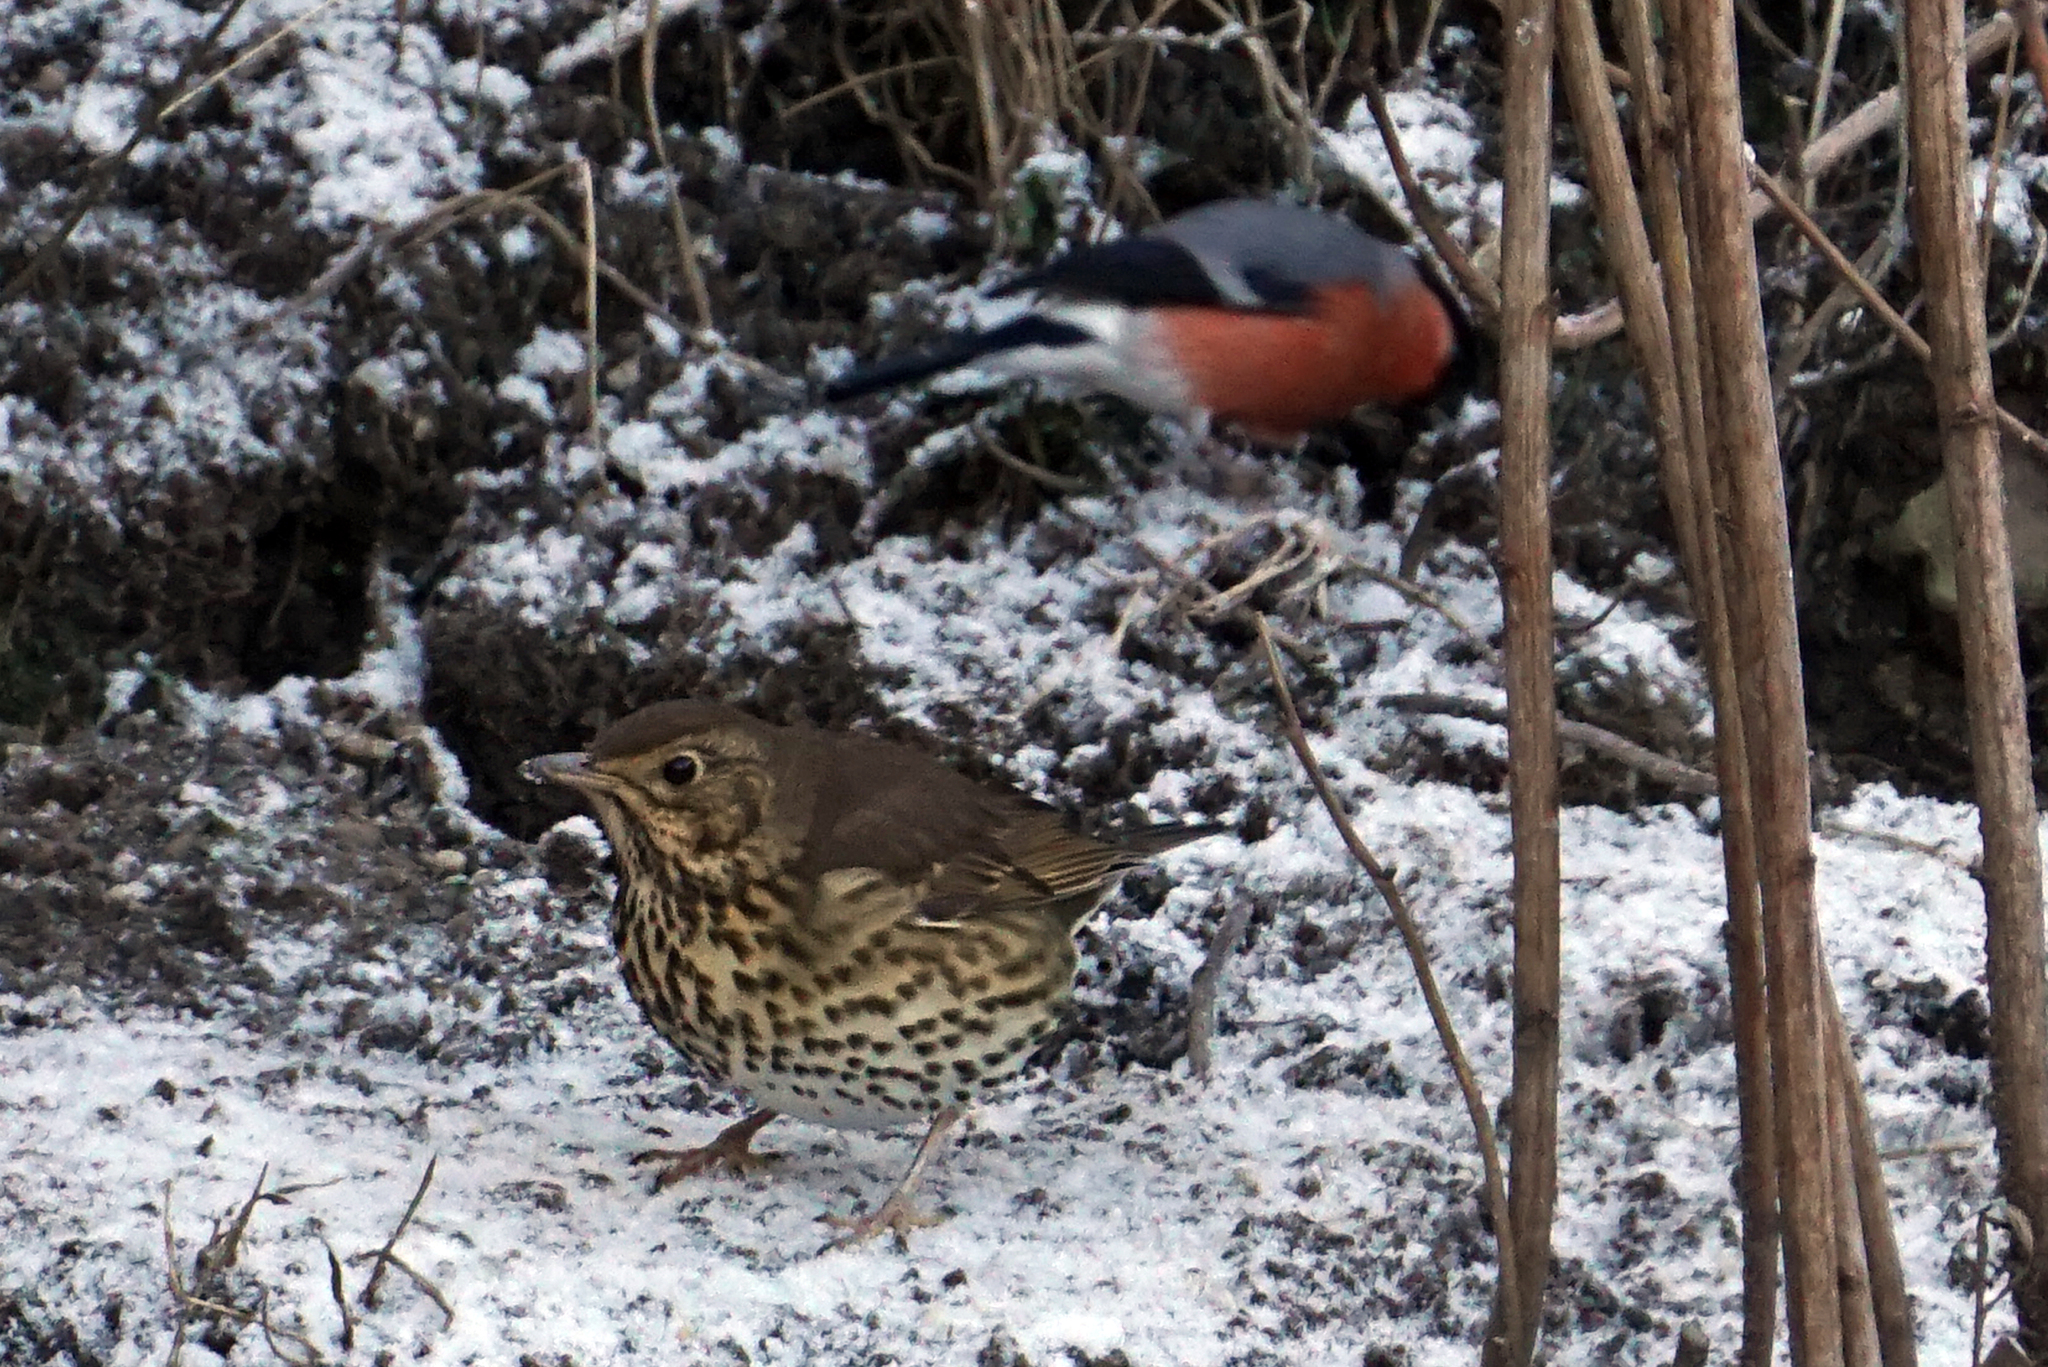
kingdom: Animalia
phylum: Chordata
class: Aves
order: Passeriformes
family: Turdidae
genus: Turdus
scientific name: Turdus philomelos
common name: Song thrush
